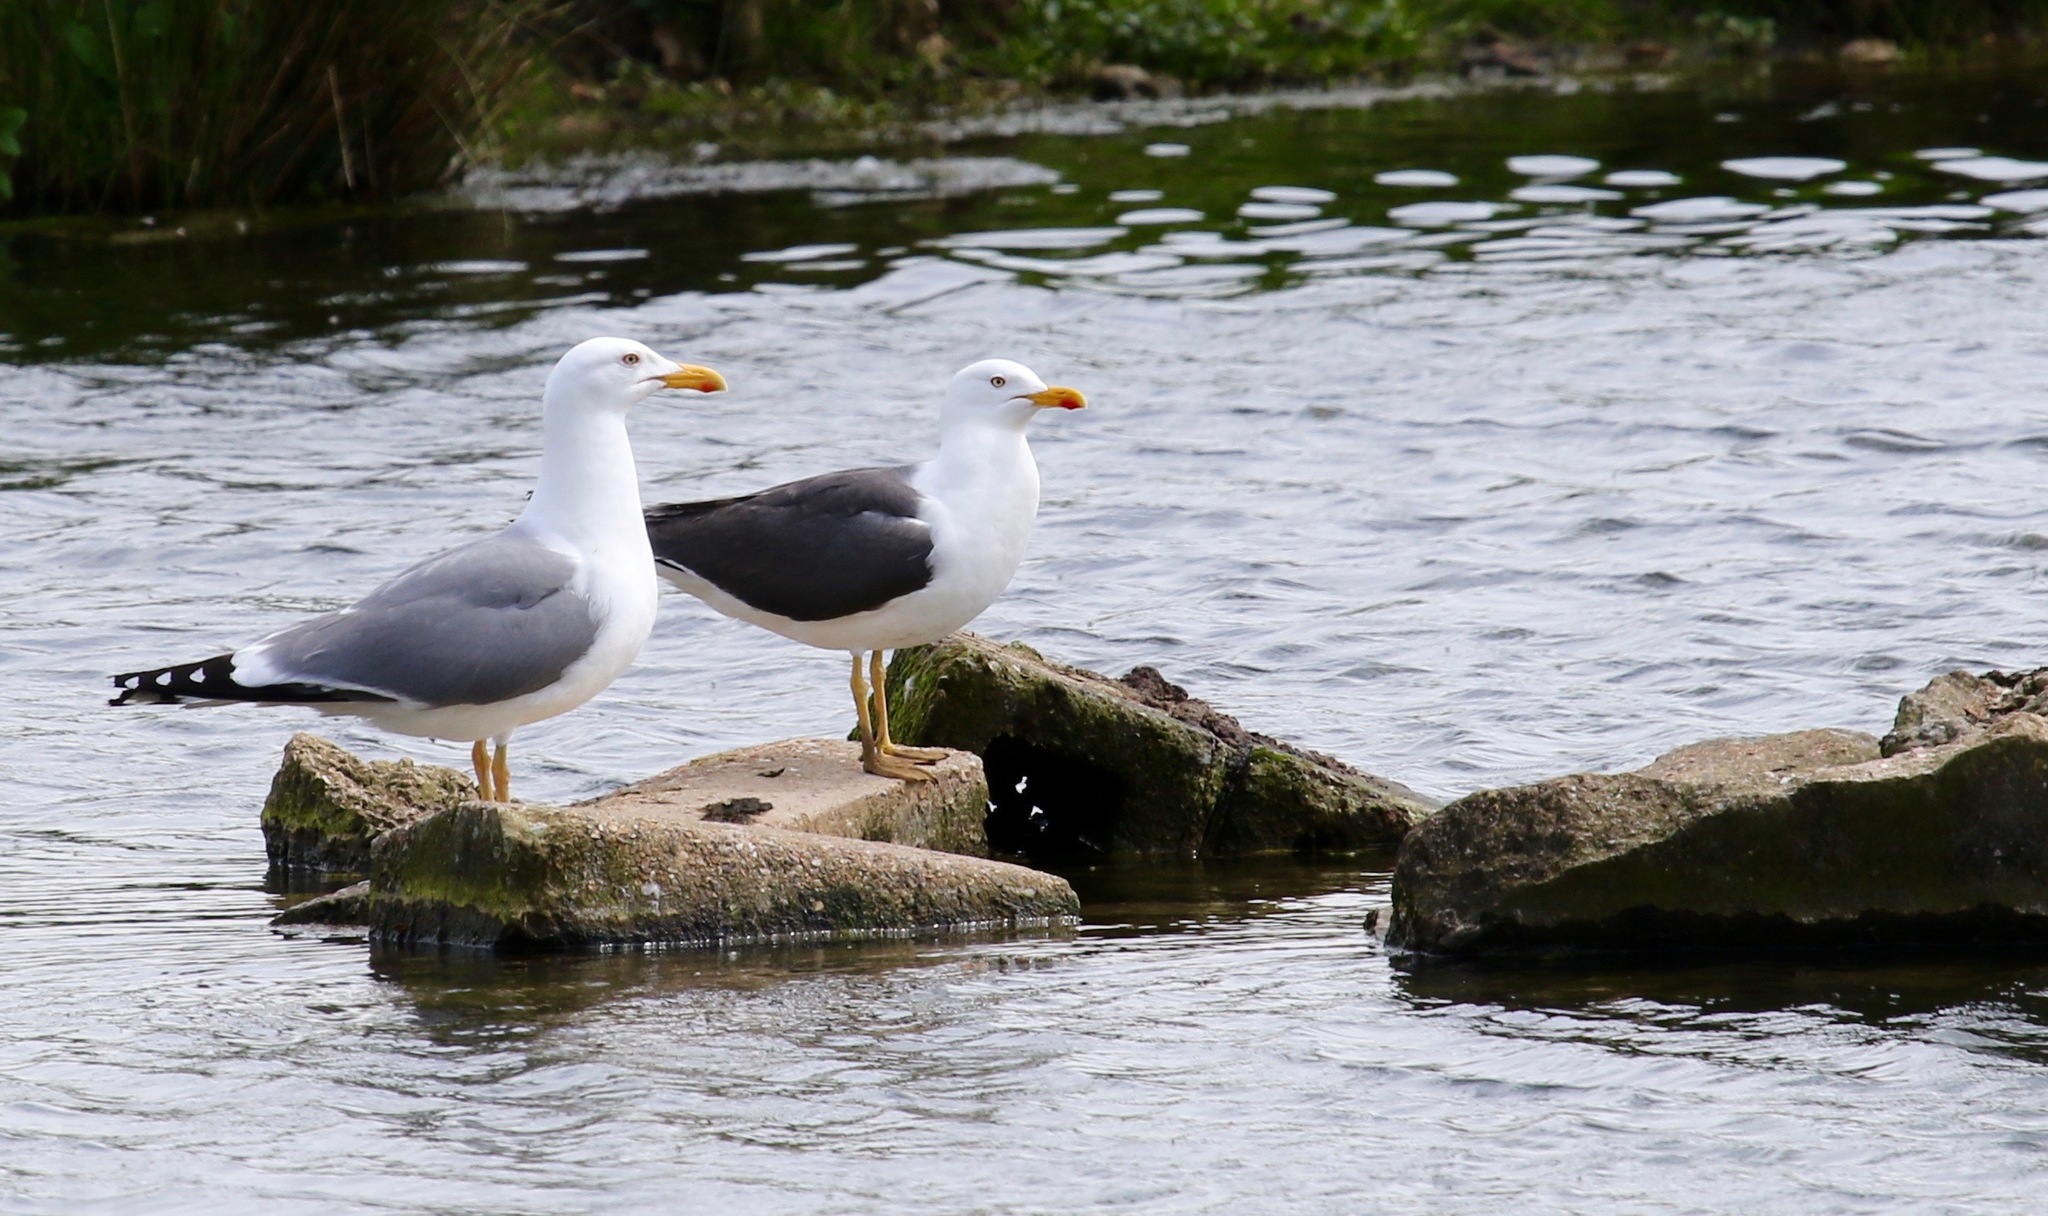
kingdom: Animalia
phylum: Chordata
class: Aves
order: Charadriiformes
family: Laridae
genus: Larus
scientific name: Larus michahellis
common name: Yellow-legged gull
